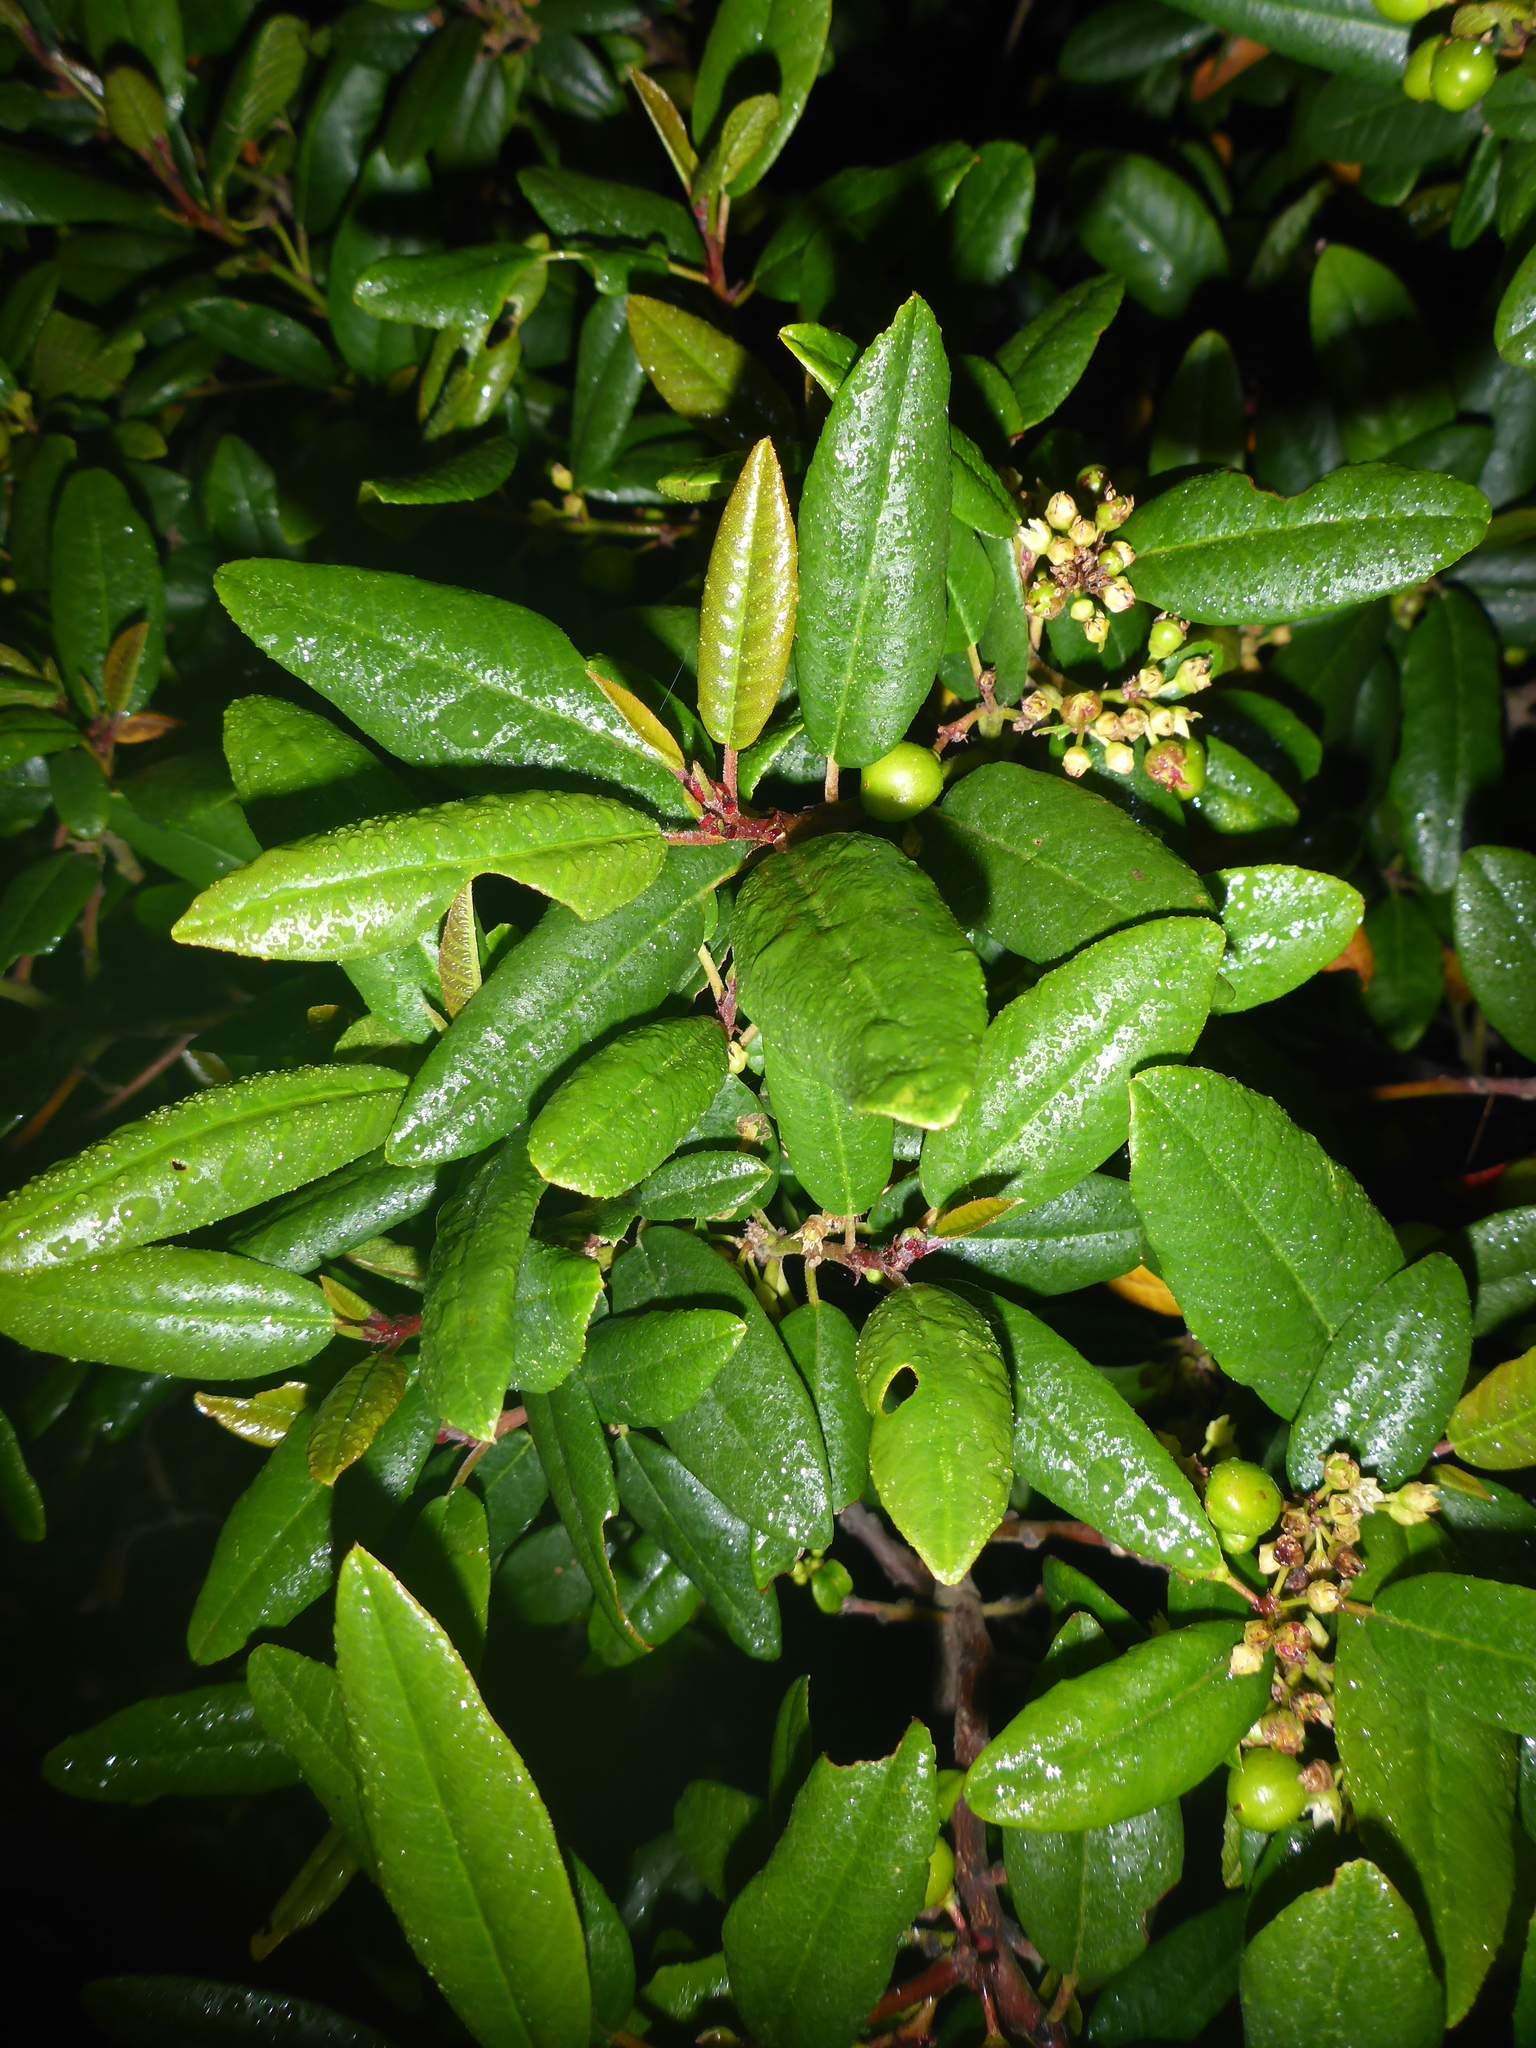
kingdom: Plantae
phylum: Tracheophyta
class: Magnoliopsida
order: Rosales
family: Rhamnaceae
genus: Frangula
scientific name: Frangula californica
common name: California buckthorn
